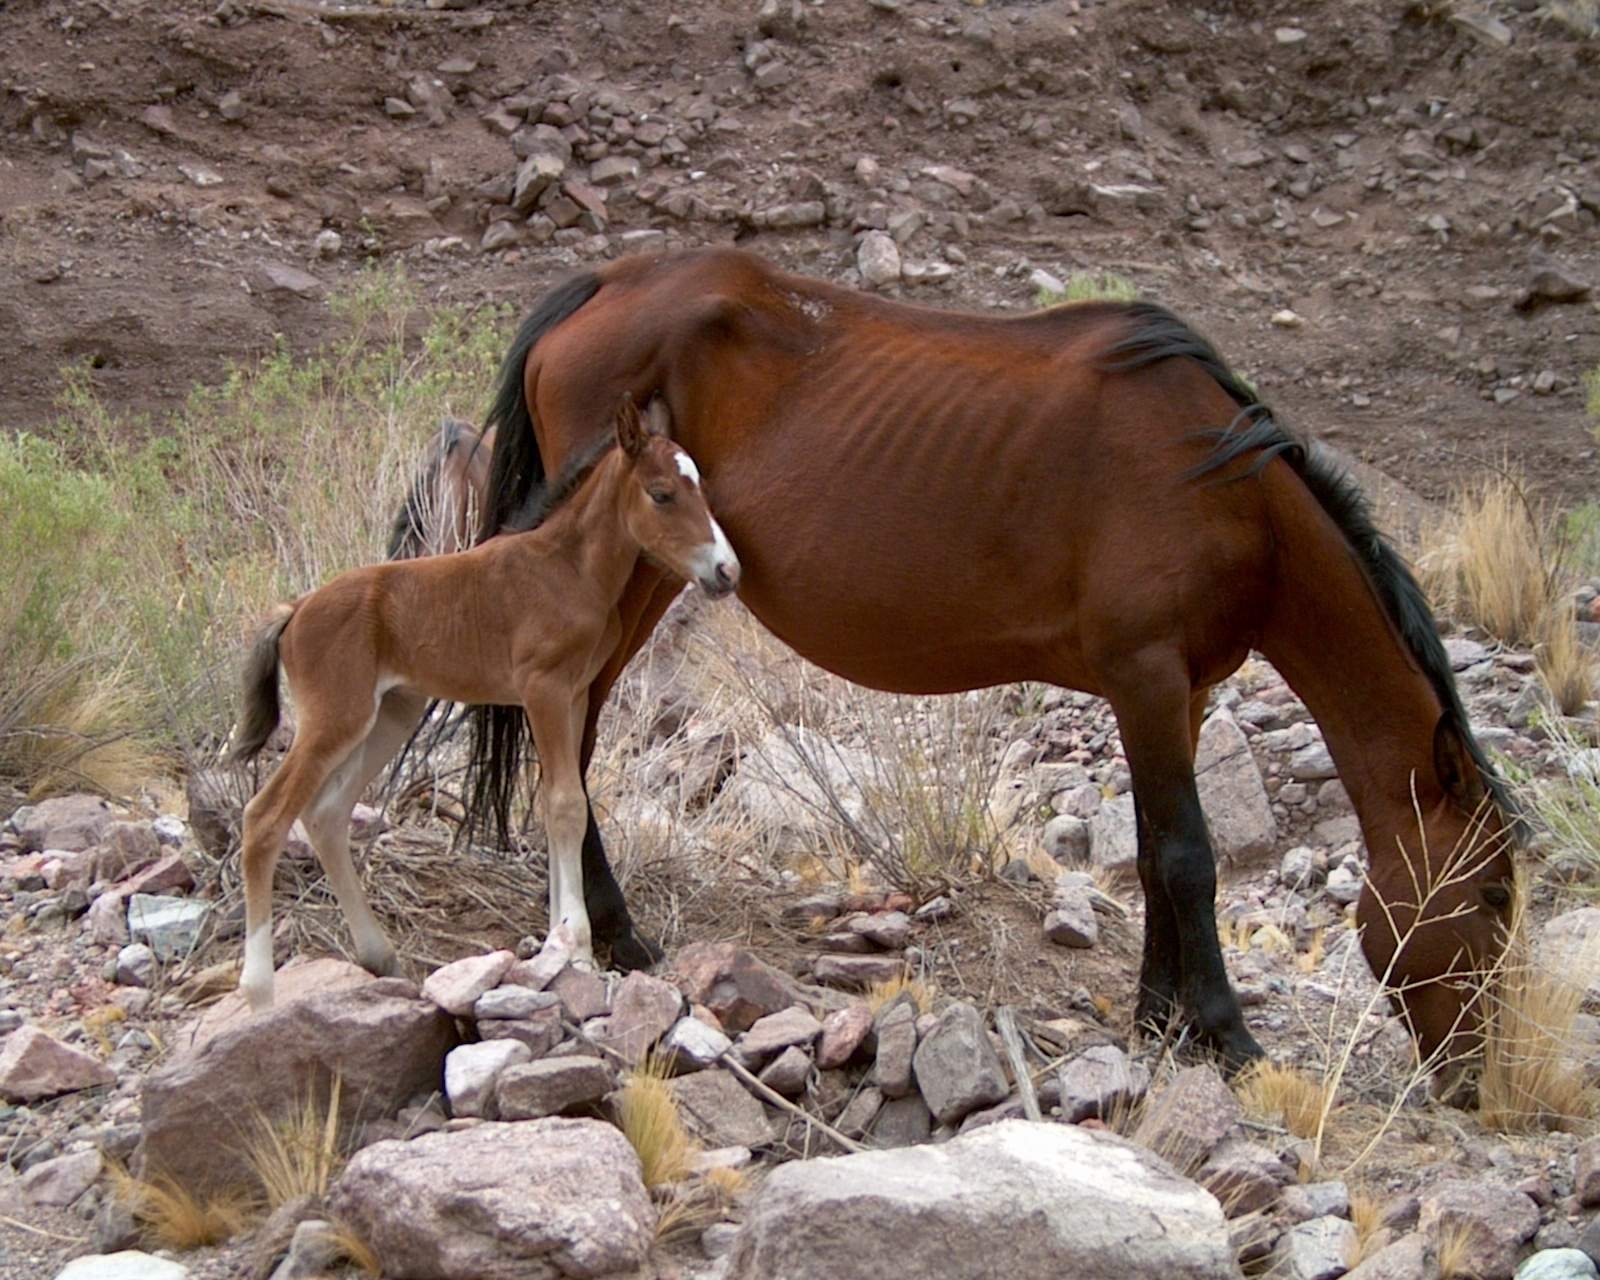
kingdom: Animalia
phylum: Chordata
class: Mammalia
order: Perissodactyla
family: Equidae
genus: Equus
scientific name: Equus caballus
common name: Horse
